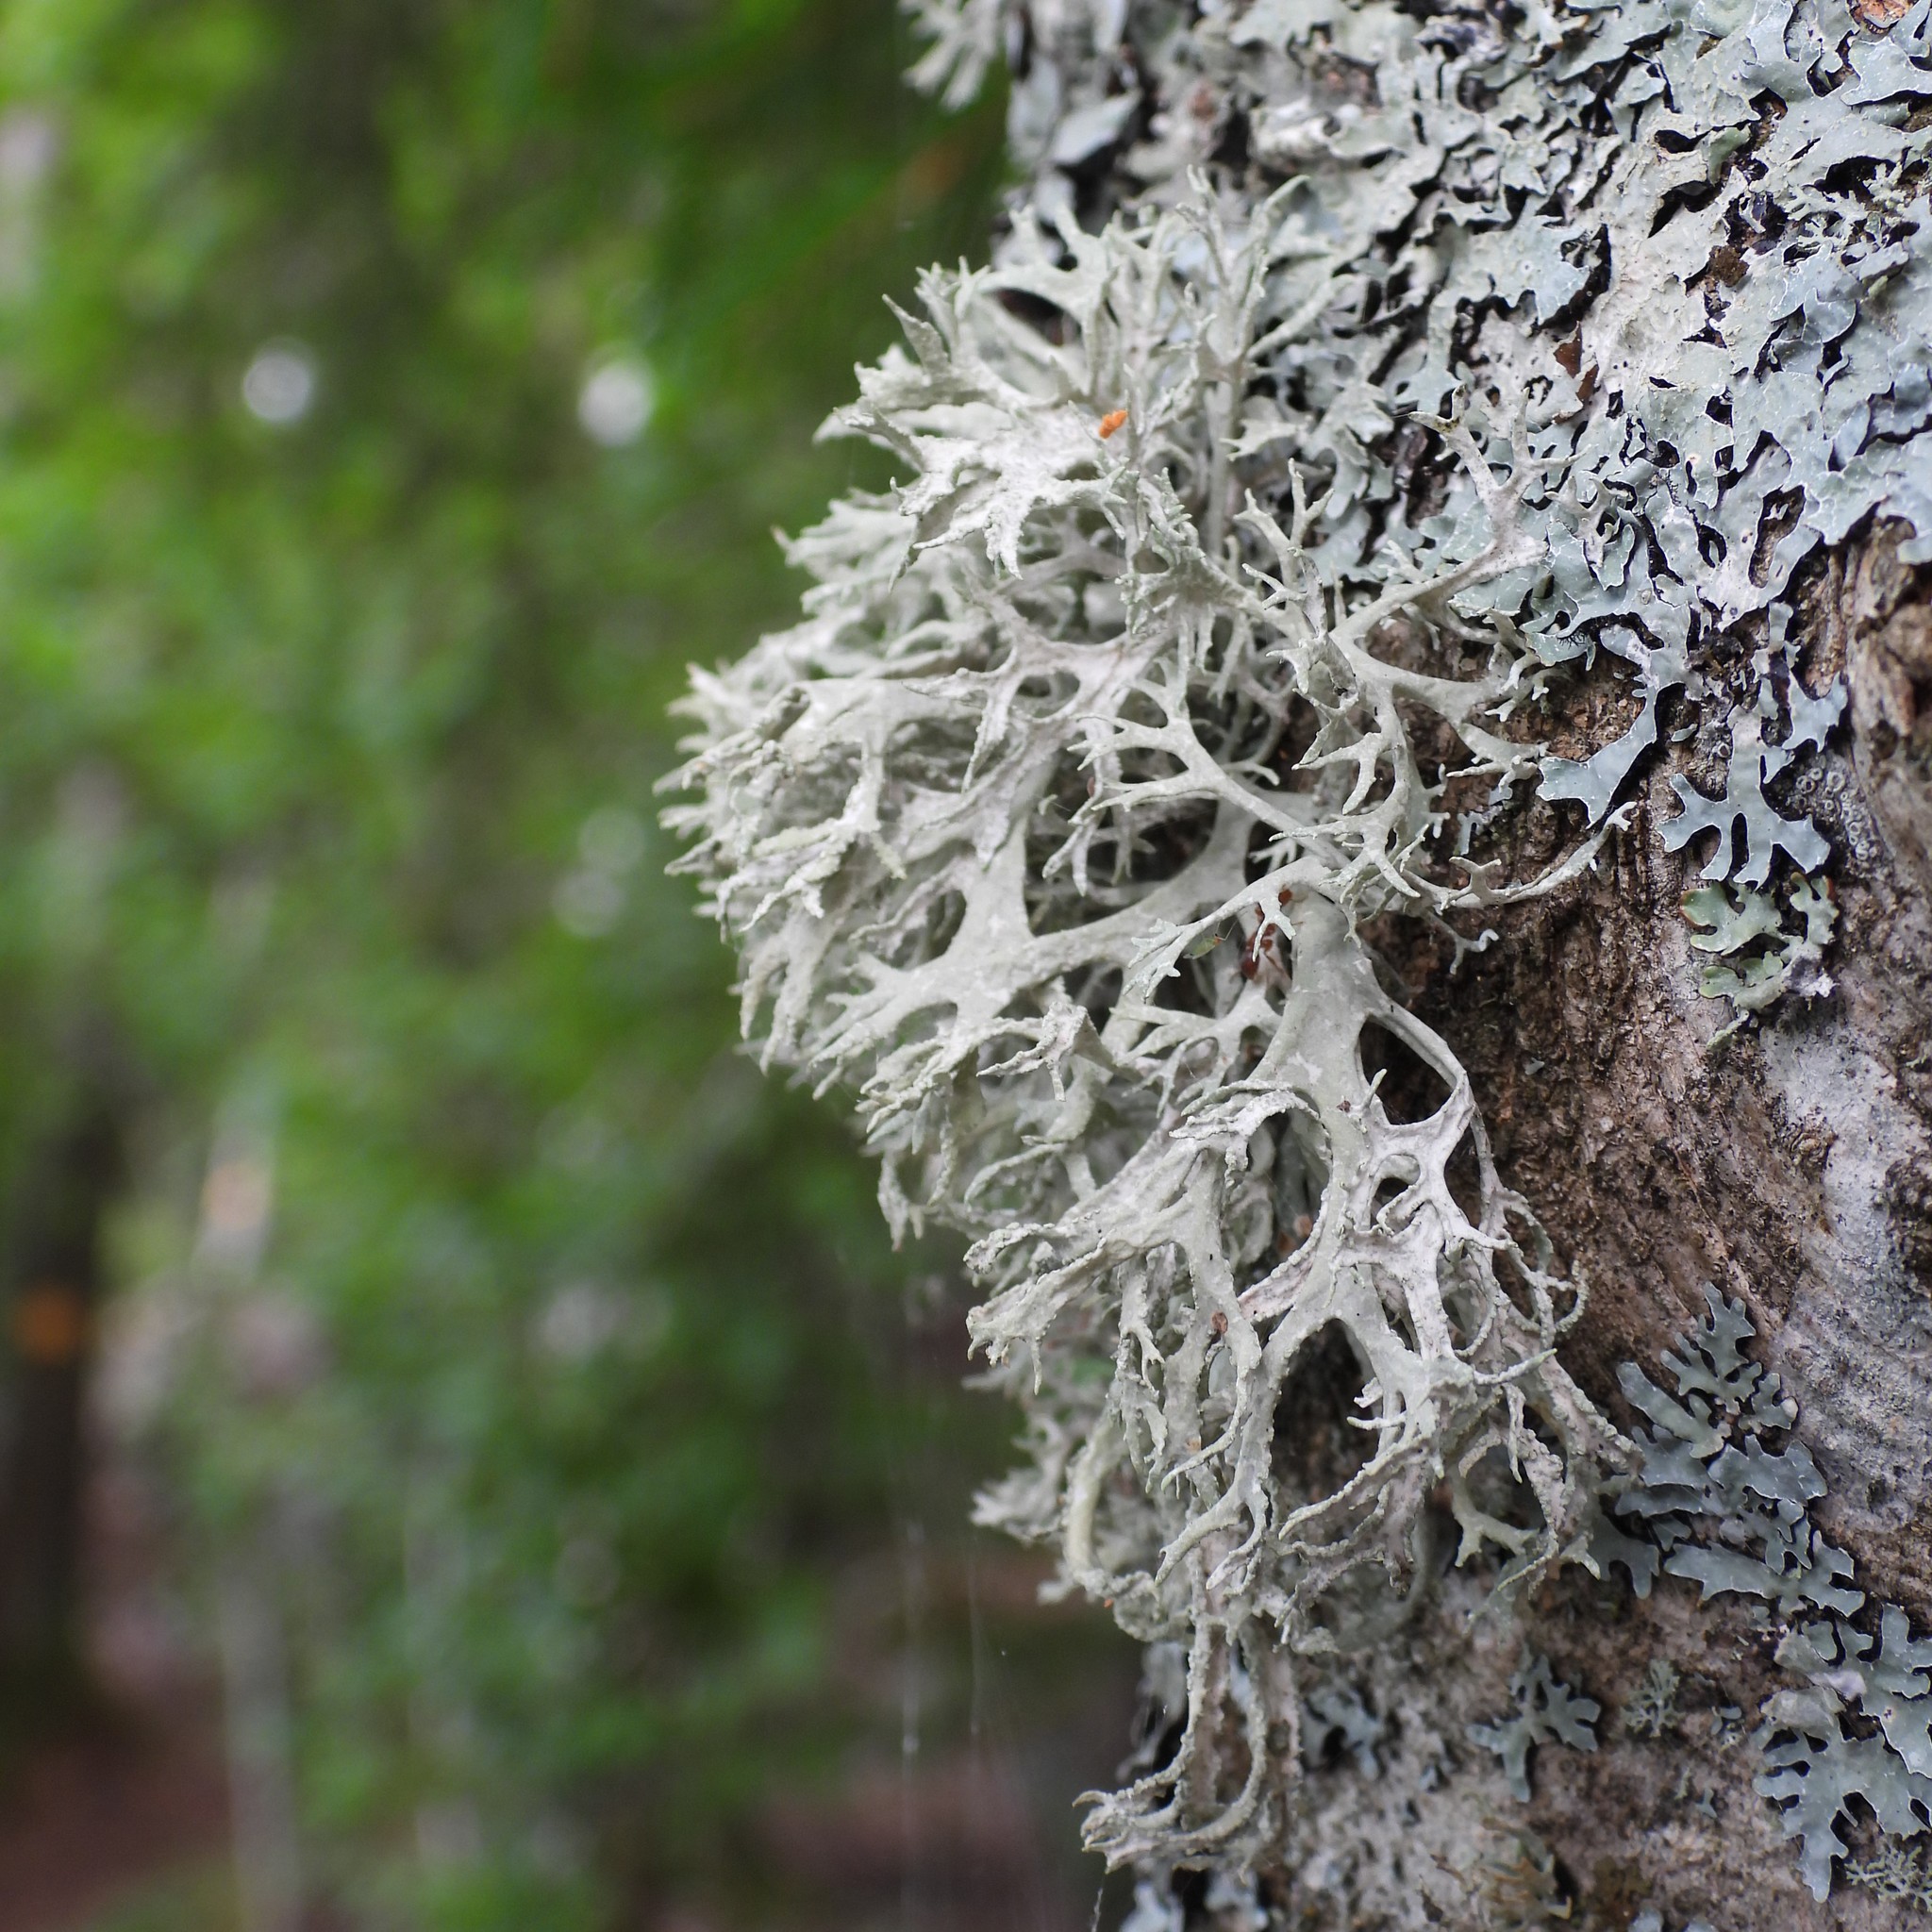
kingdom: Fungi
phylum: Ascomycota
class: Lecanoromycetes
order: Lecanorales
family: Parmeliaceae
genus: Evernia
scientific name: Evernia prunastri
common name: Oak moss
